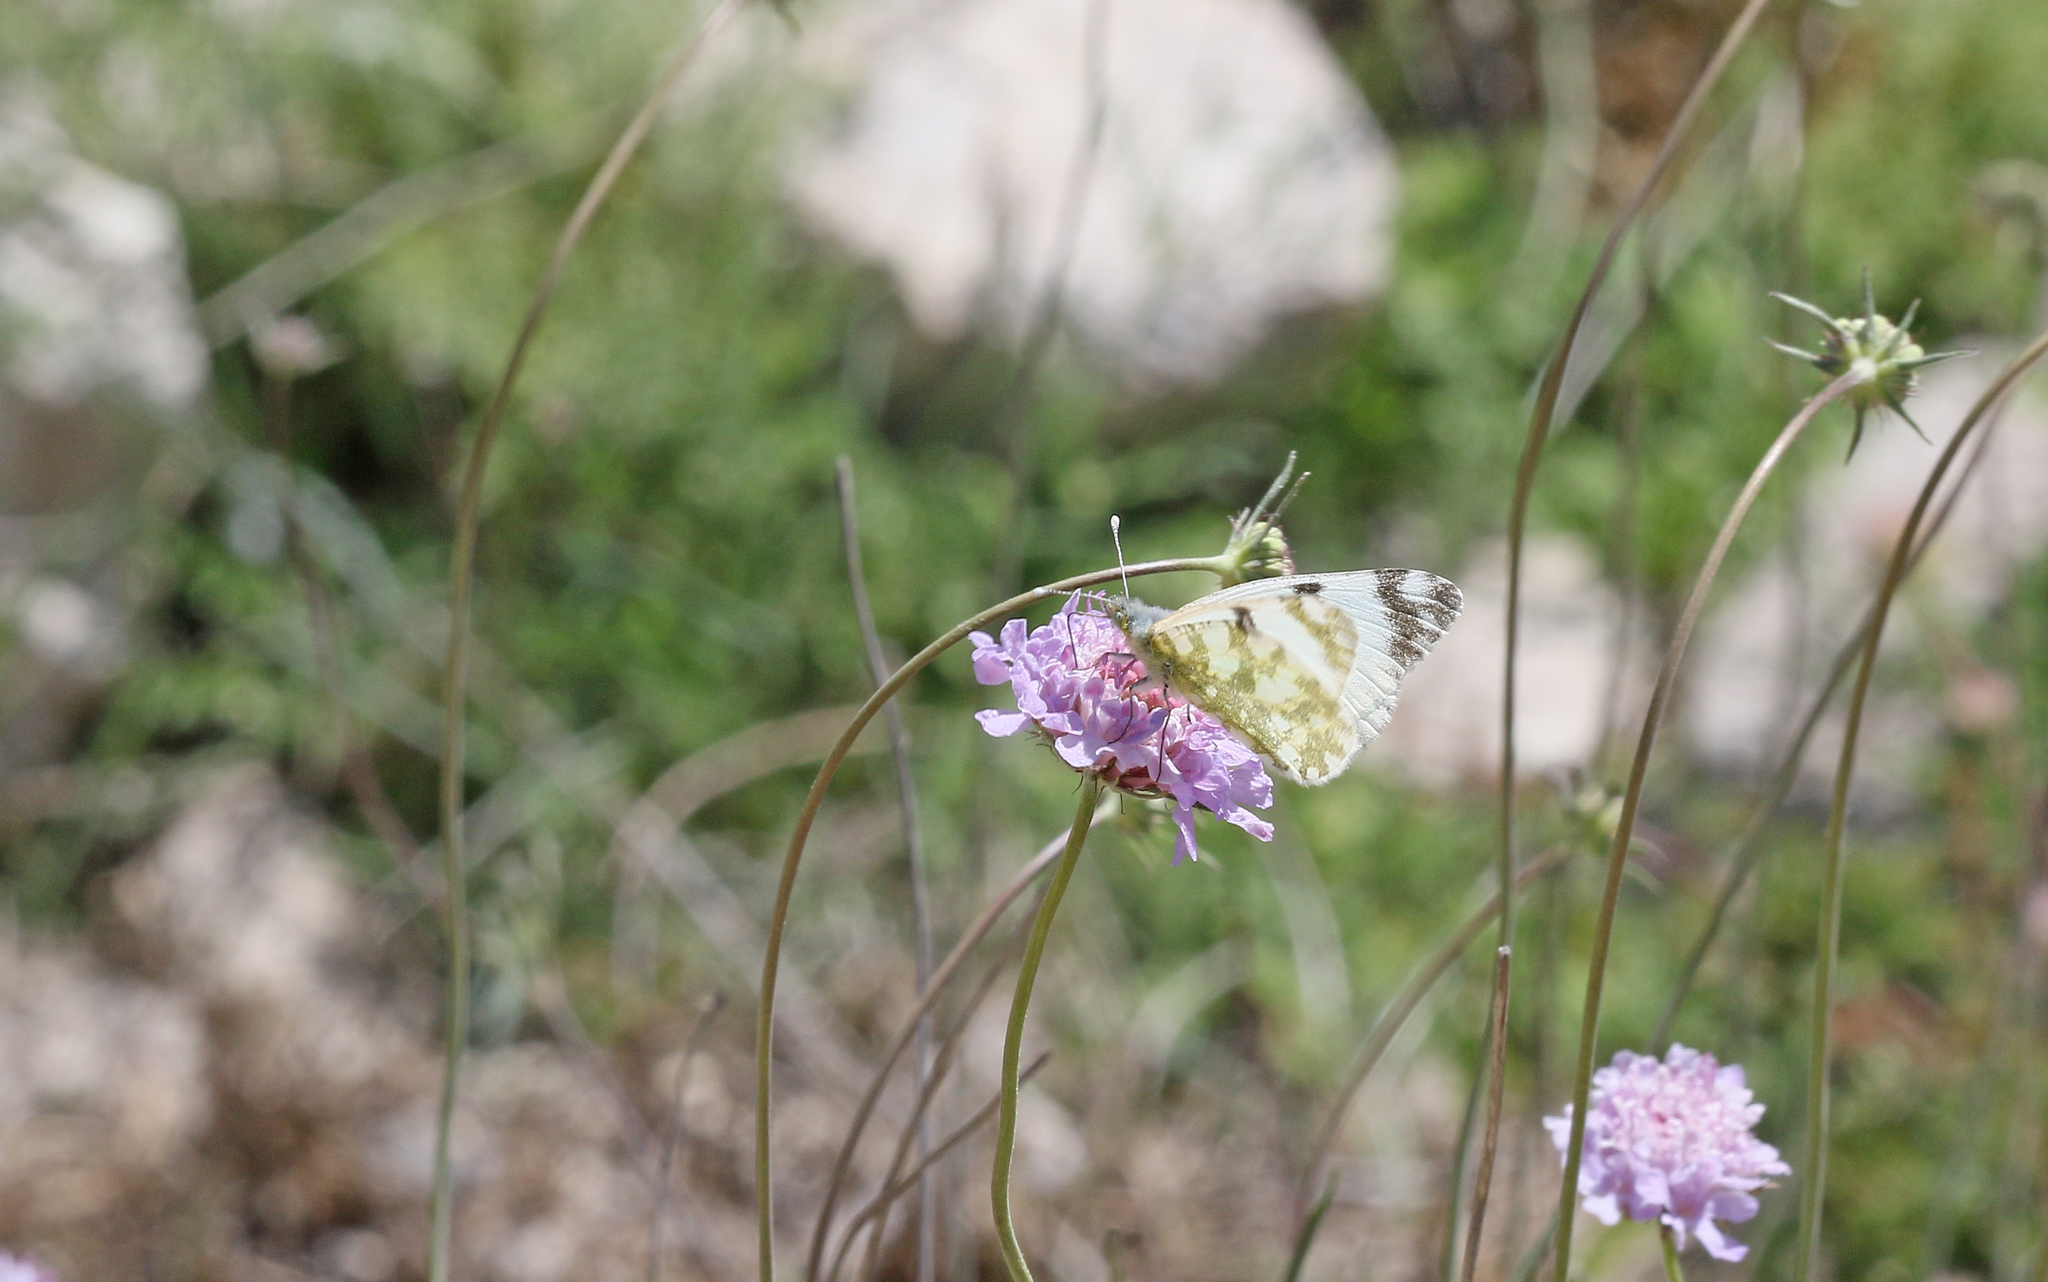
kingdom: Animalia
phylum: Arthropoda
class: Insecta
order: Lepidoptera
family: Pieridae
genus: Euchloe
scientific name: Euchloe crameri
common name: Western dappled white
